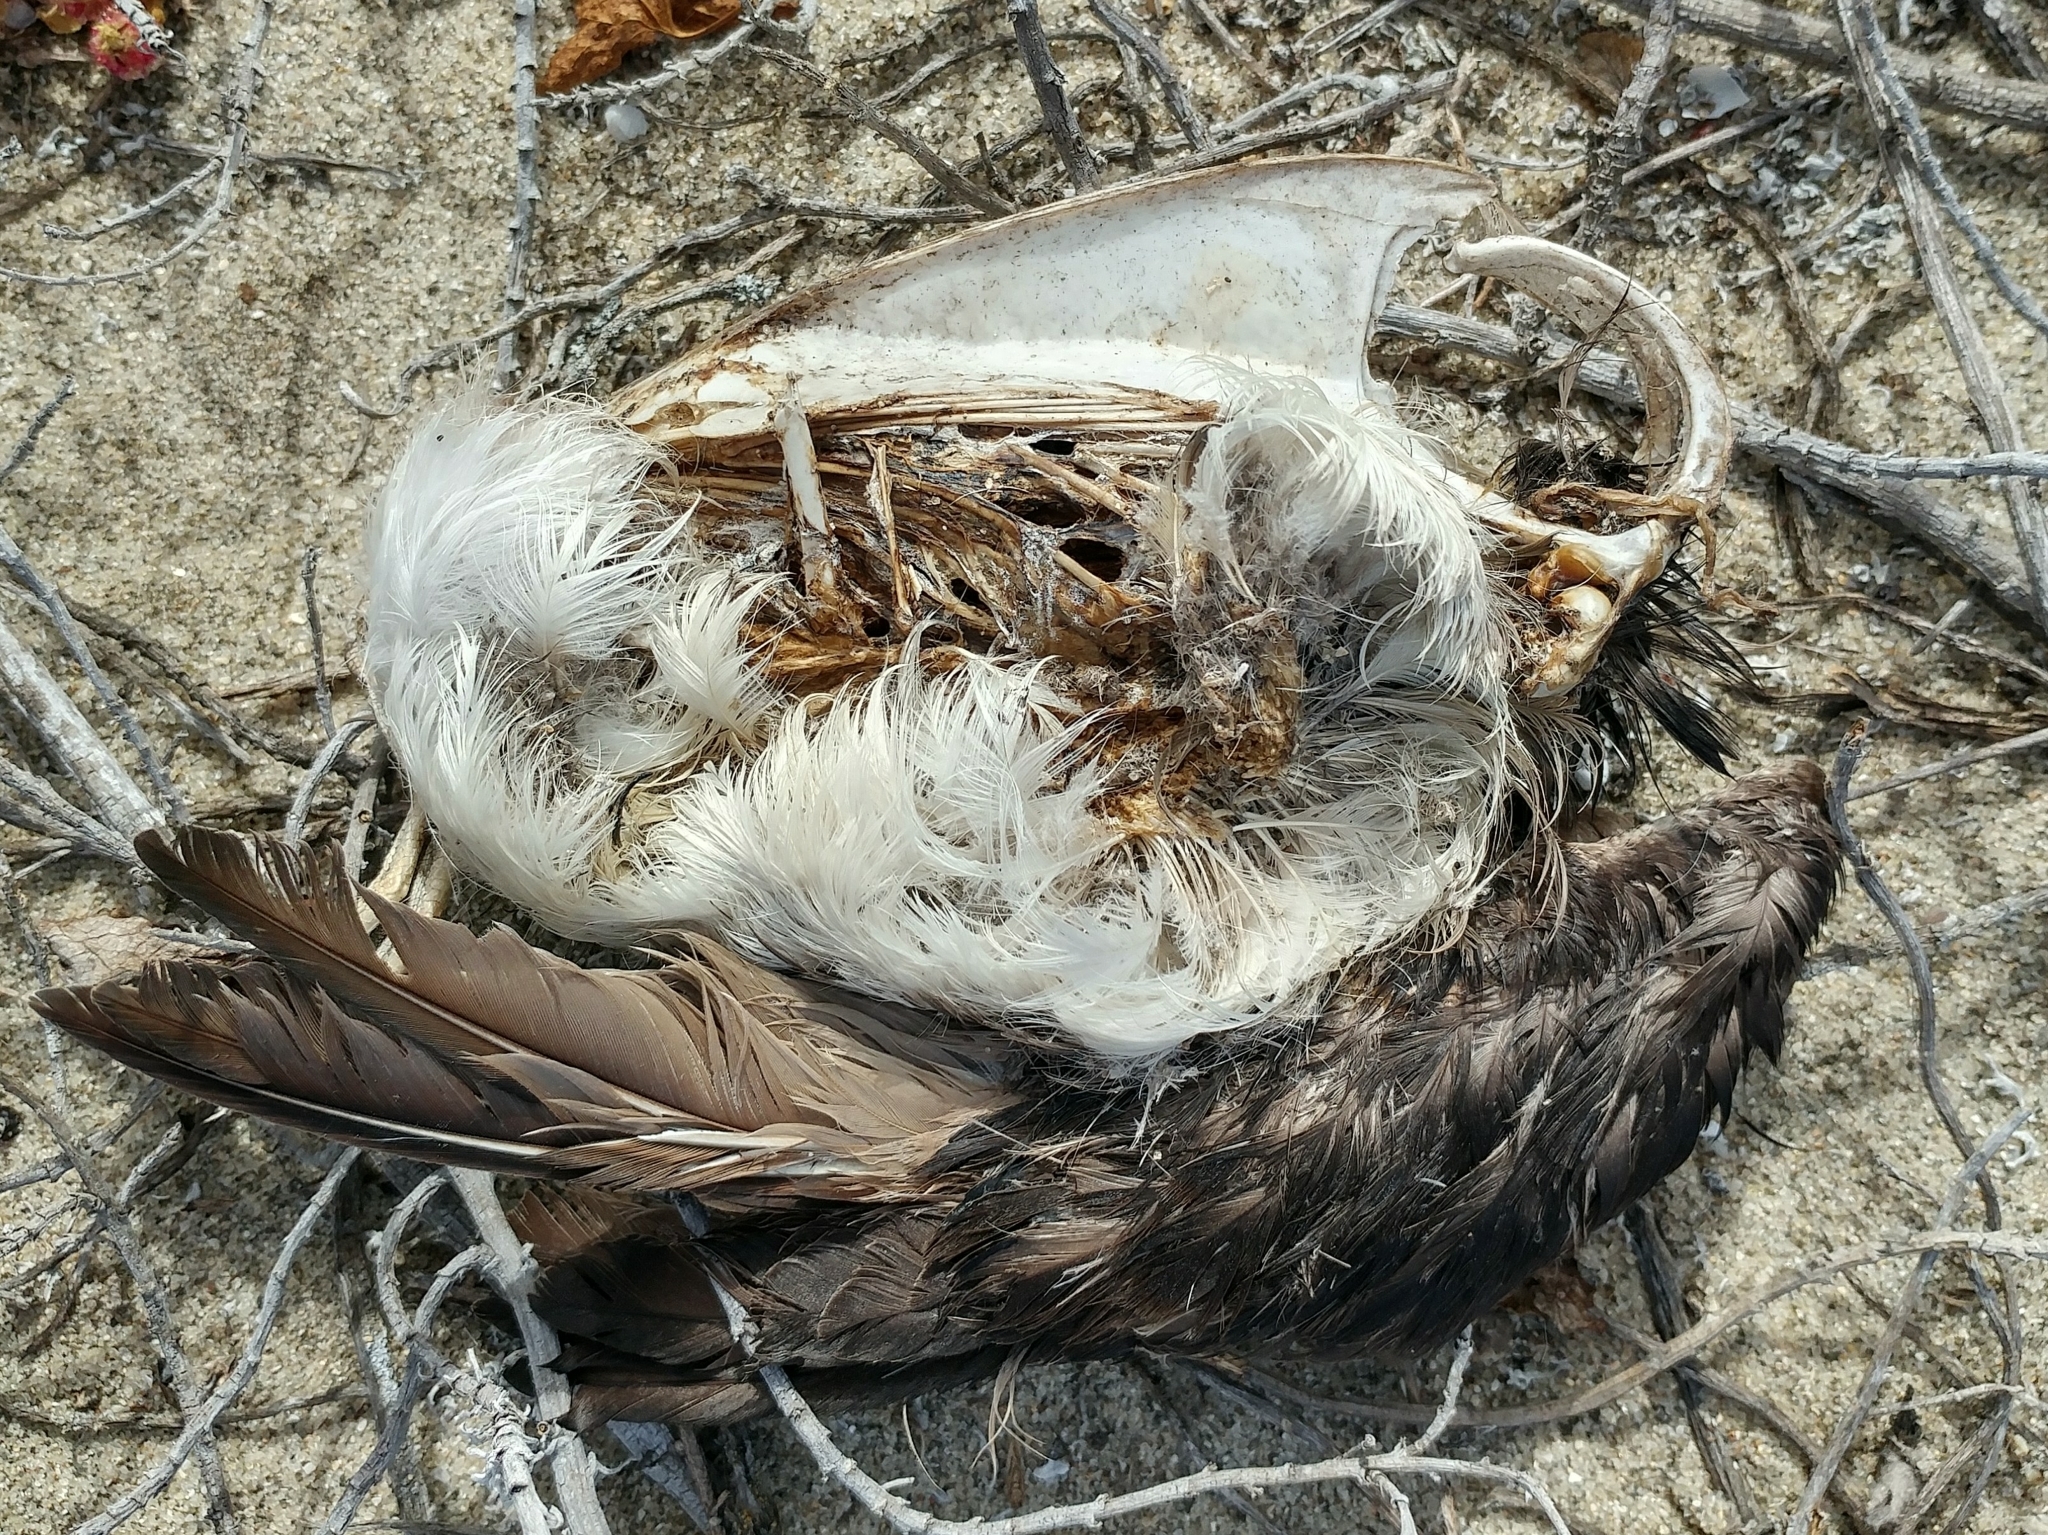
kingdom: Animalia
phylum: Chordata
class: Aves
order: Charadriiformes
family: Alcidae
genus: Ptychoramphus
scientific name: Ptychoramphus aleuticus
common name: Cassin's auklet
